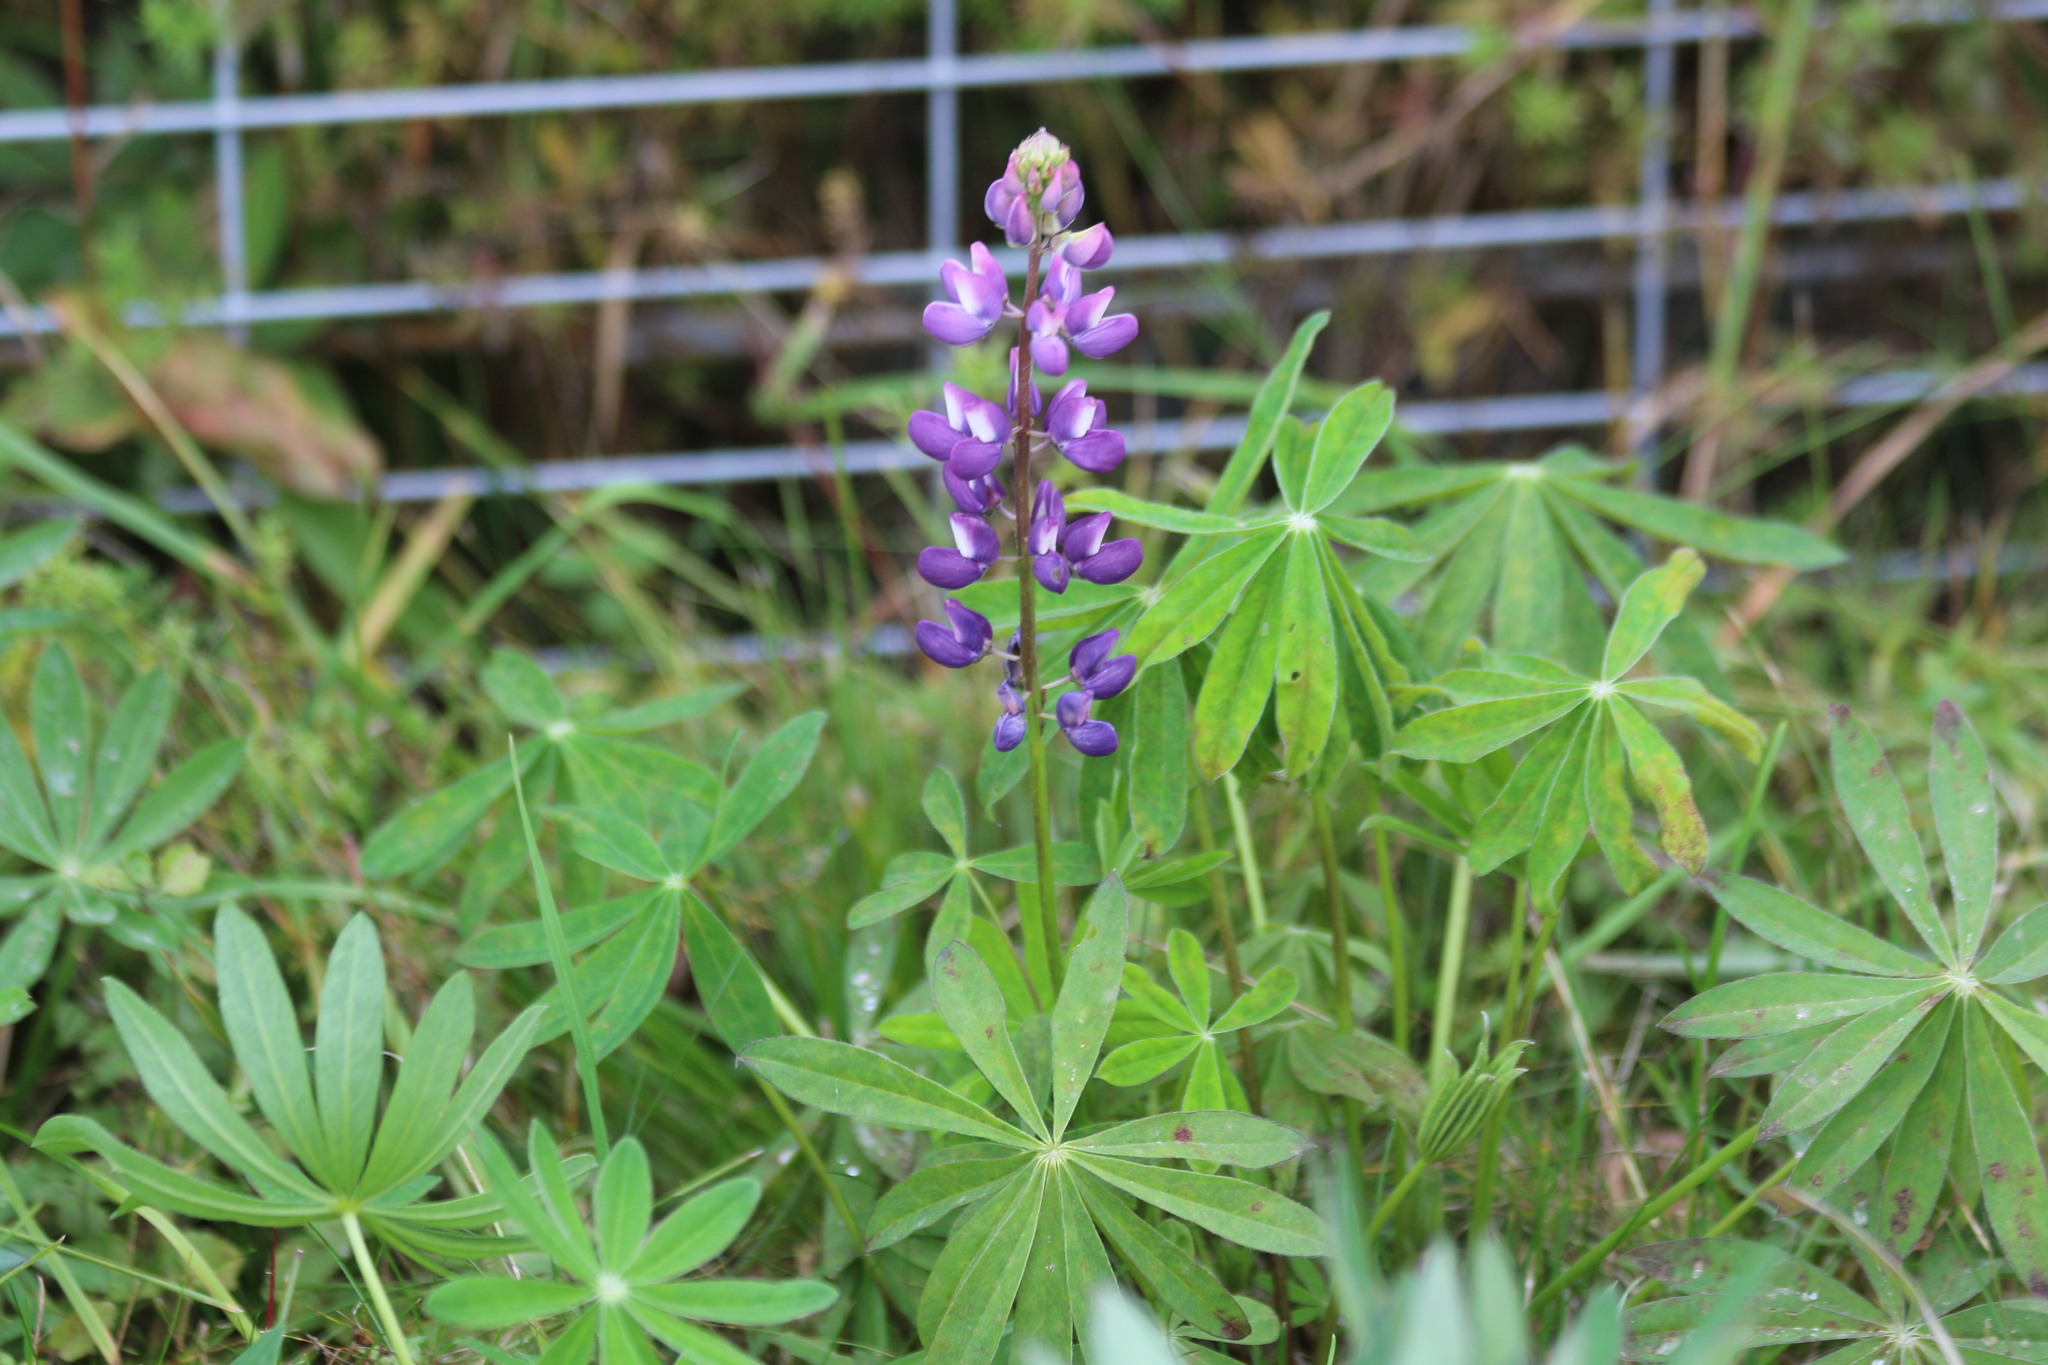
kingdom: Plantae
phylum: Tracheophyta
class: Magnoliopsida
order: Fabales
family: Fabaceae
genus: Lupinus
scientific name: Lupinus polyphyllus
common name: Garden lupin
